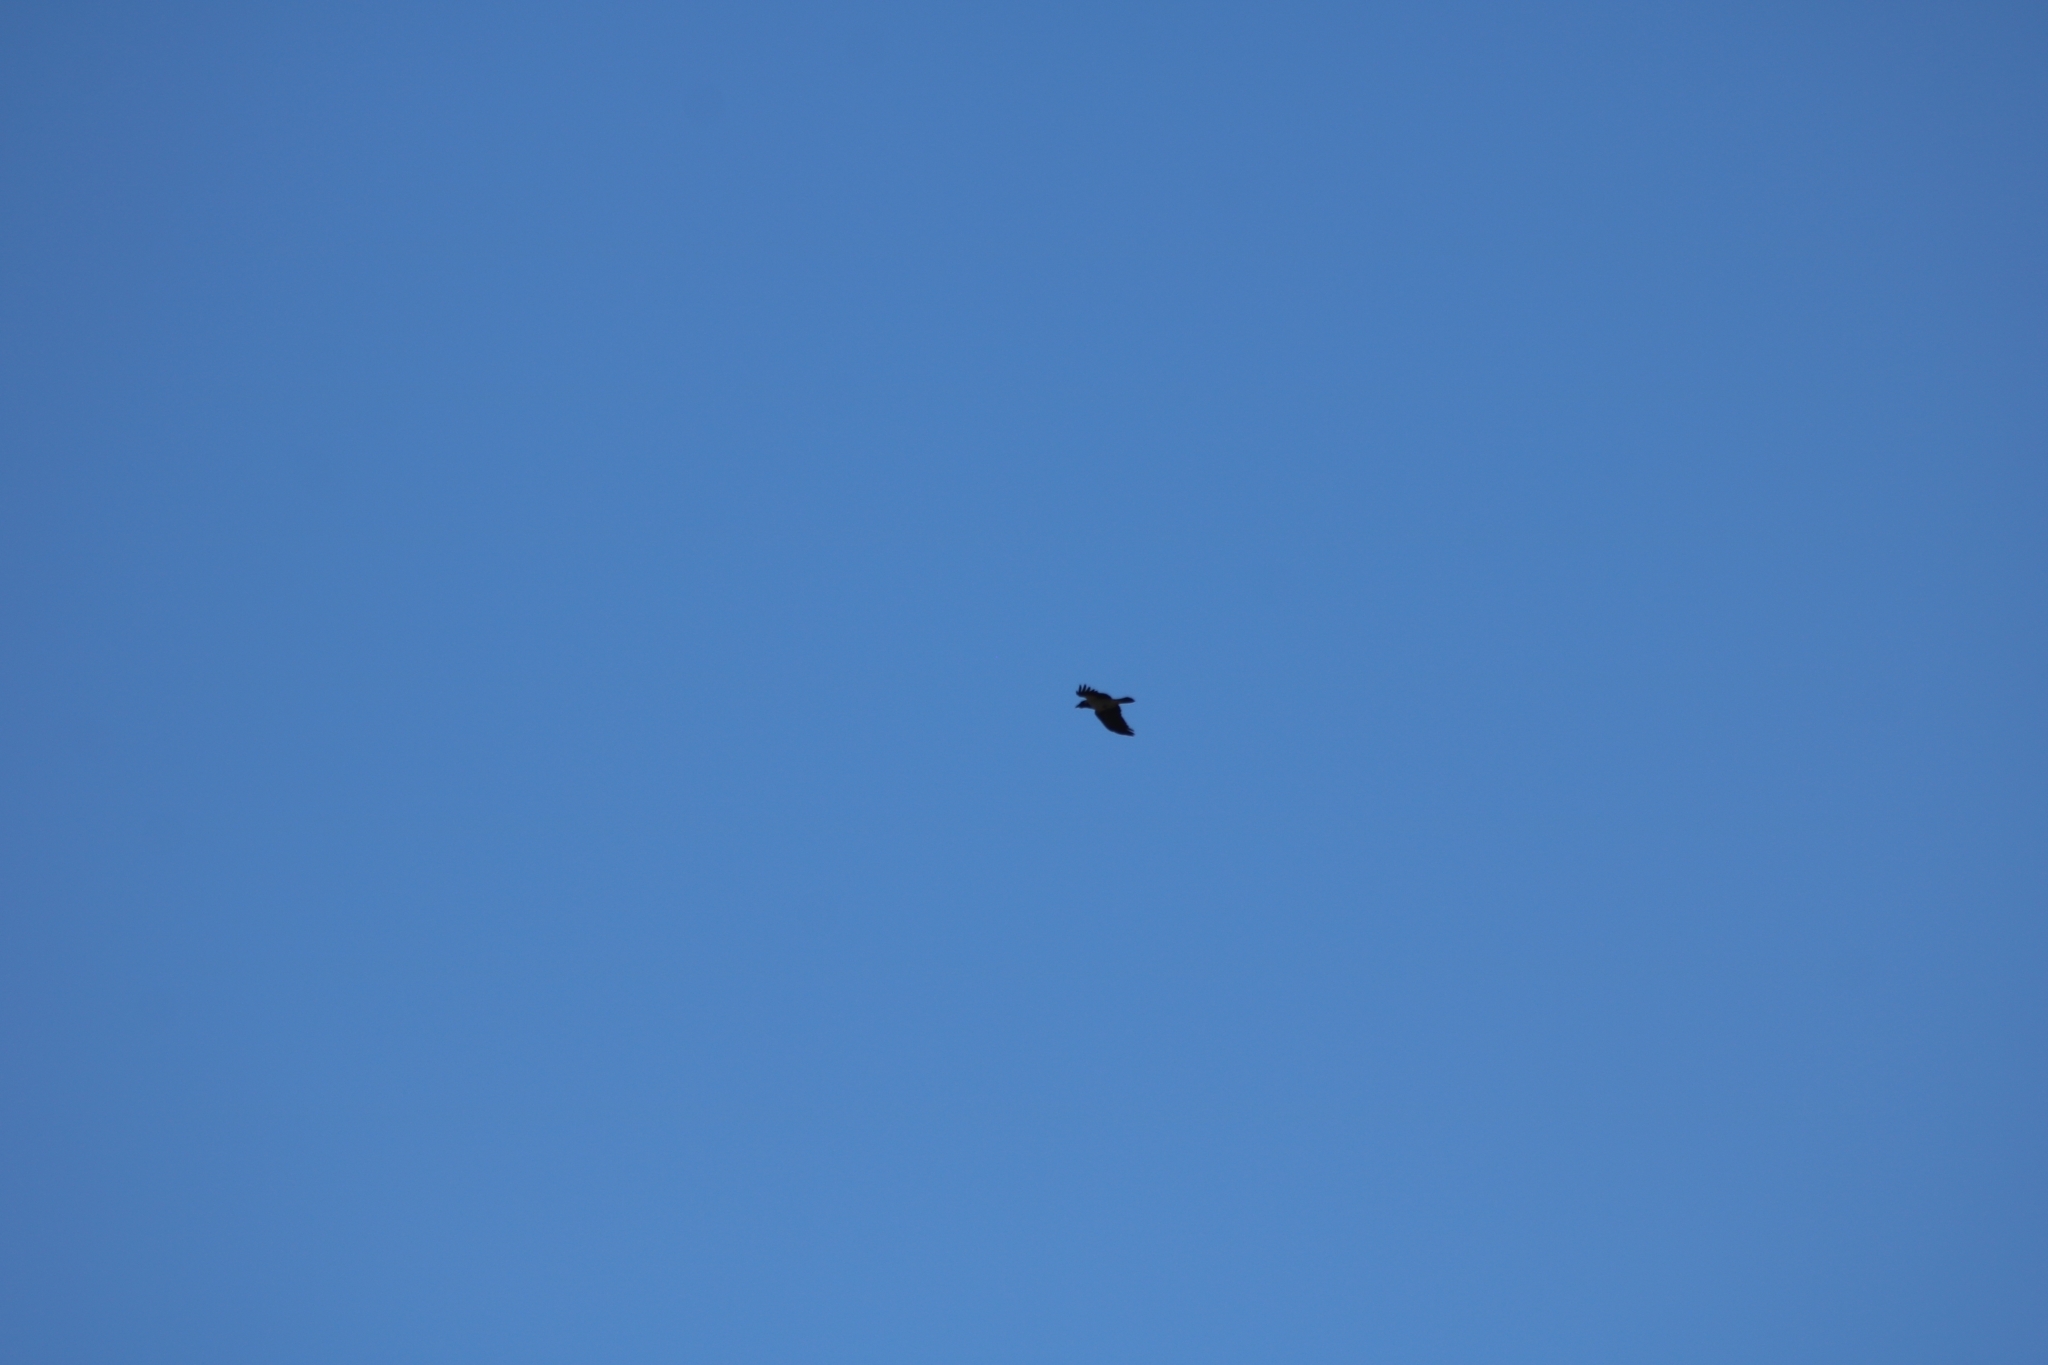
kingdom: Animalia
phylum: Chordata
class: Aves
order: Passeriformes
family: Corvidae
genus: Corvus
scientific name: Corvus cornix
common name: Hooded crow
